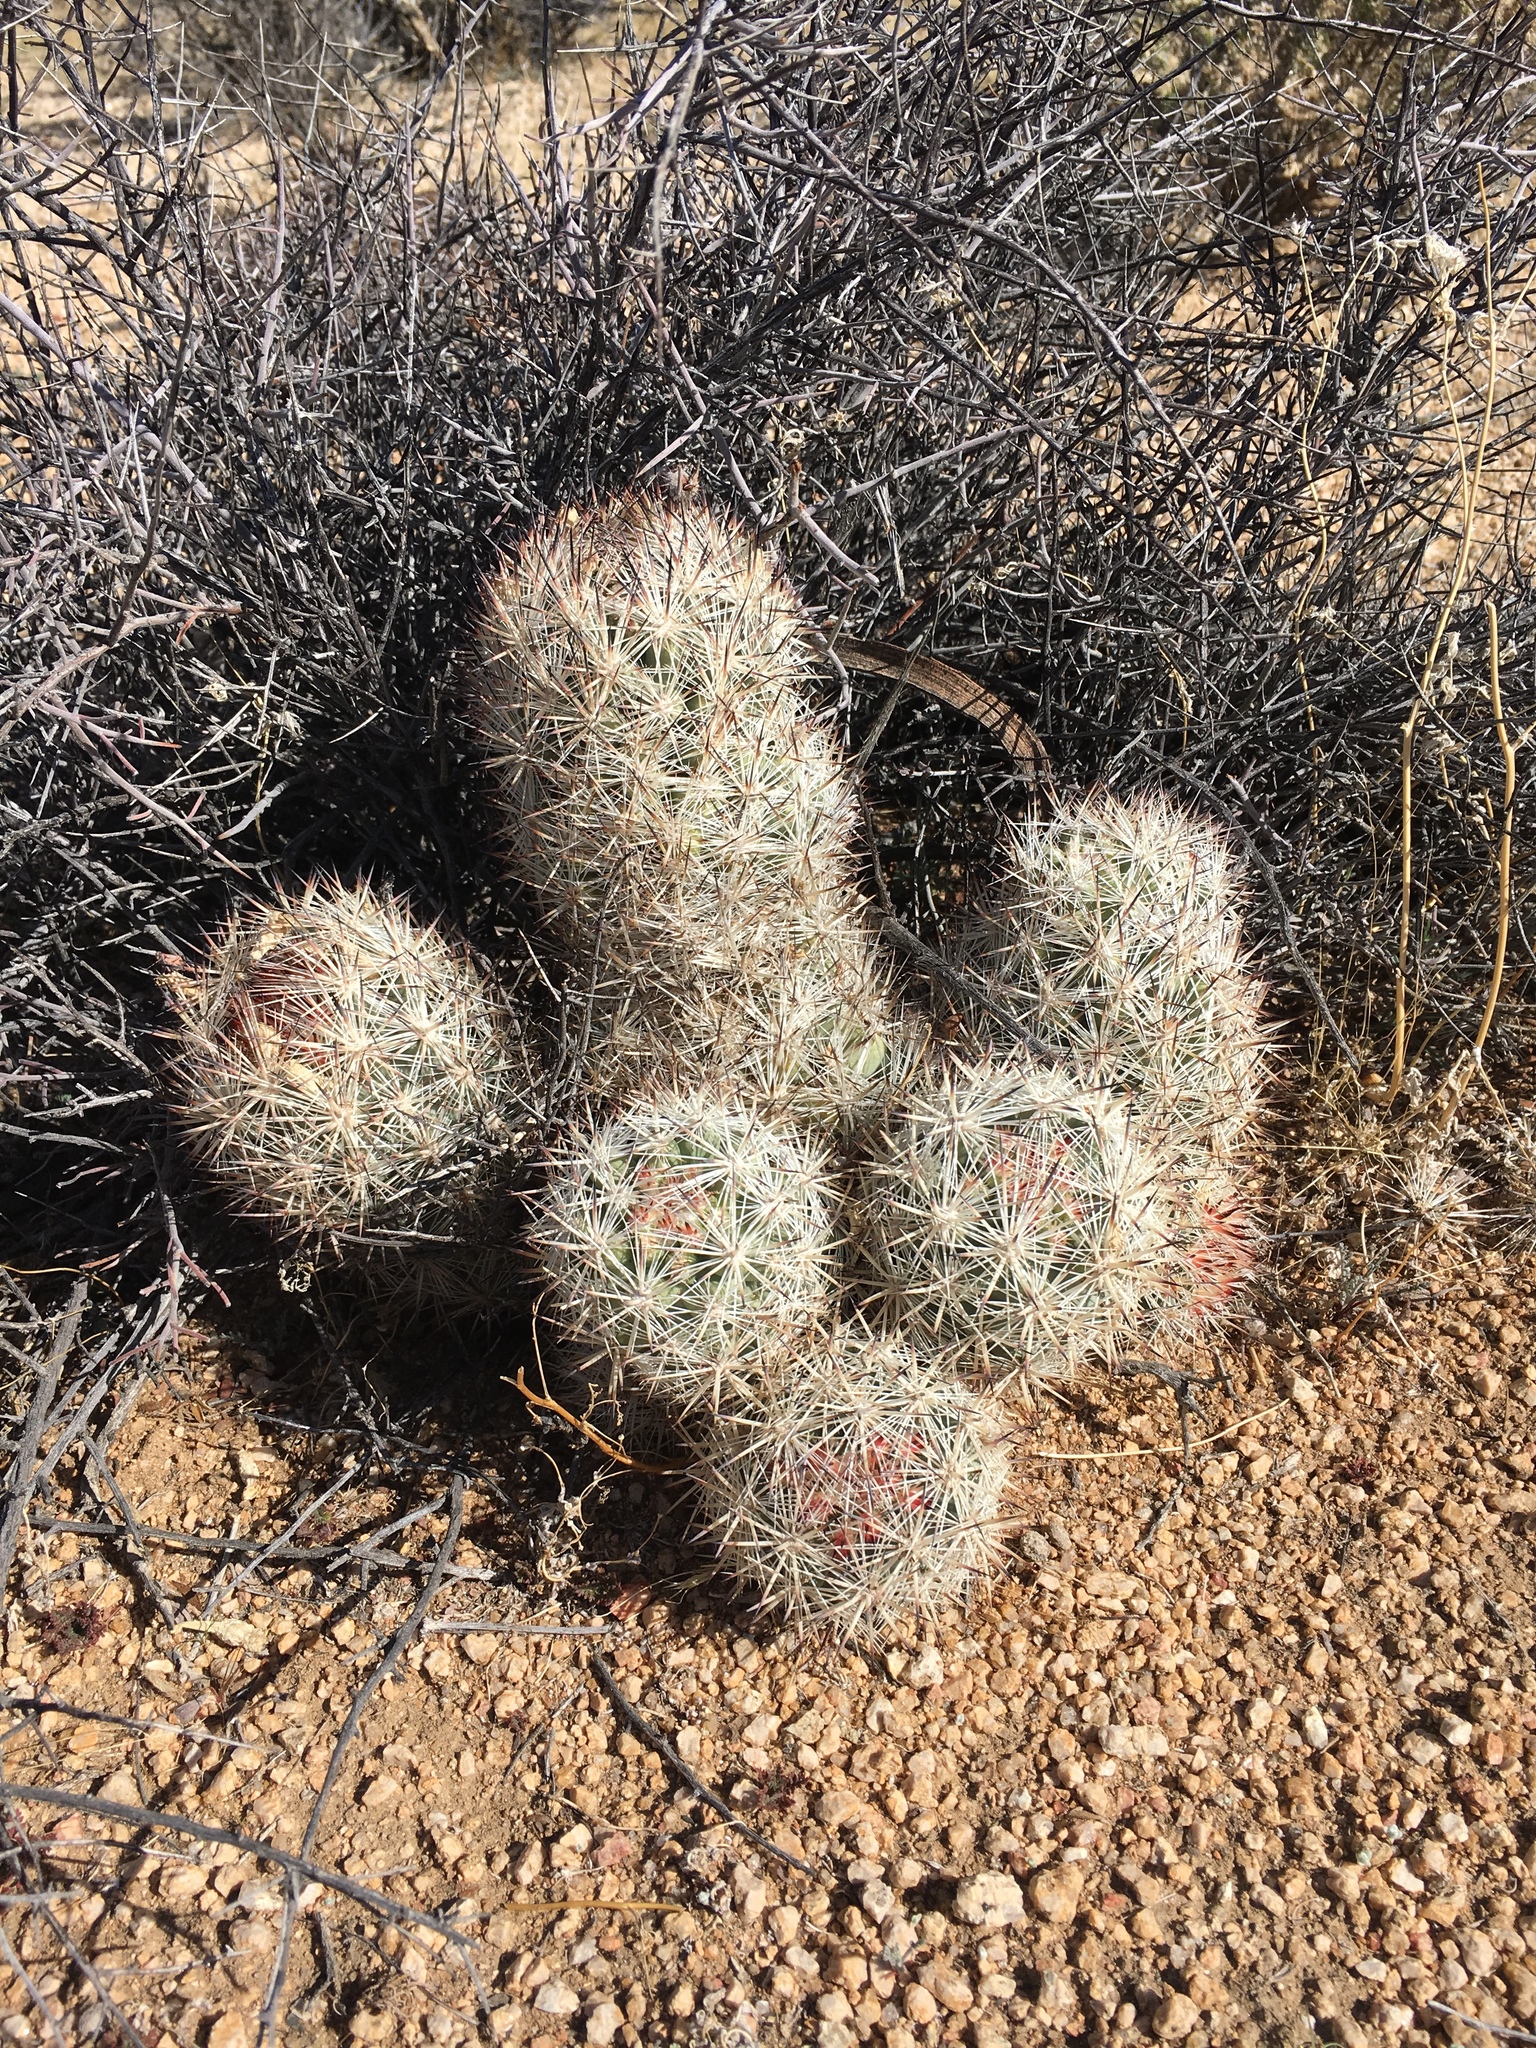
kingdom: Plantae
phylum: Tracheophyta
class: Magnoliopsida
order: Caryophyllales
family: Cactaceae
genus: Pelecyphora
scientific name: Pelecyphora alversonii
